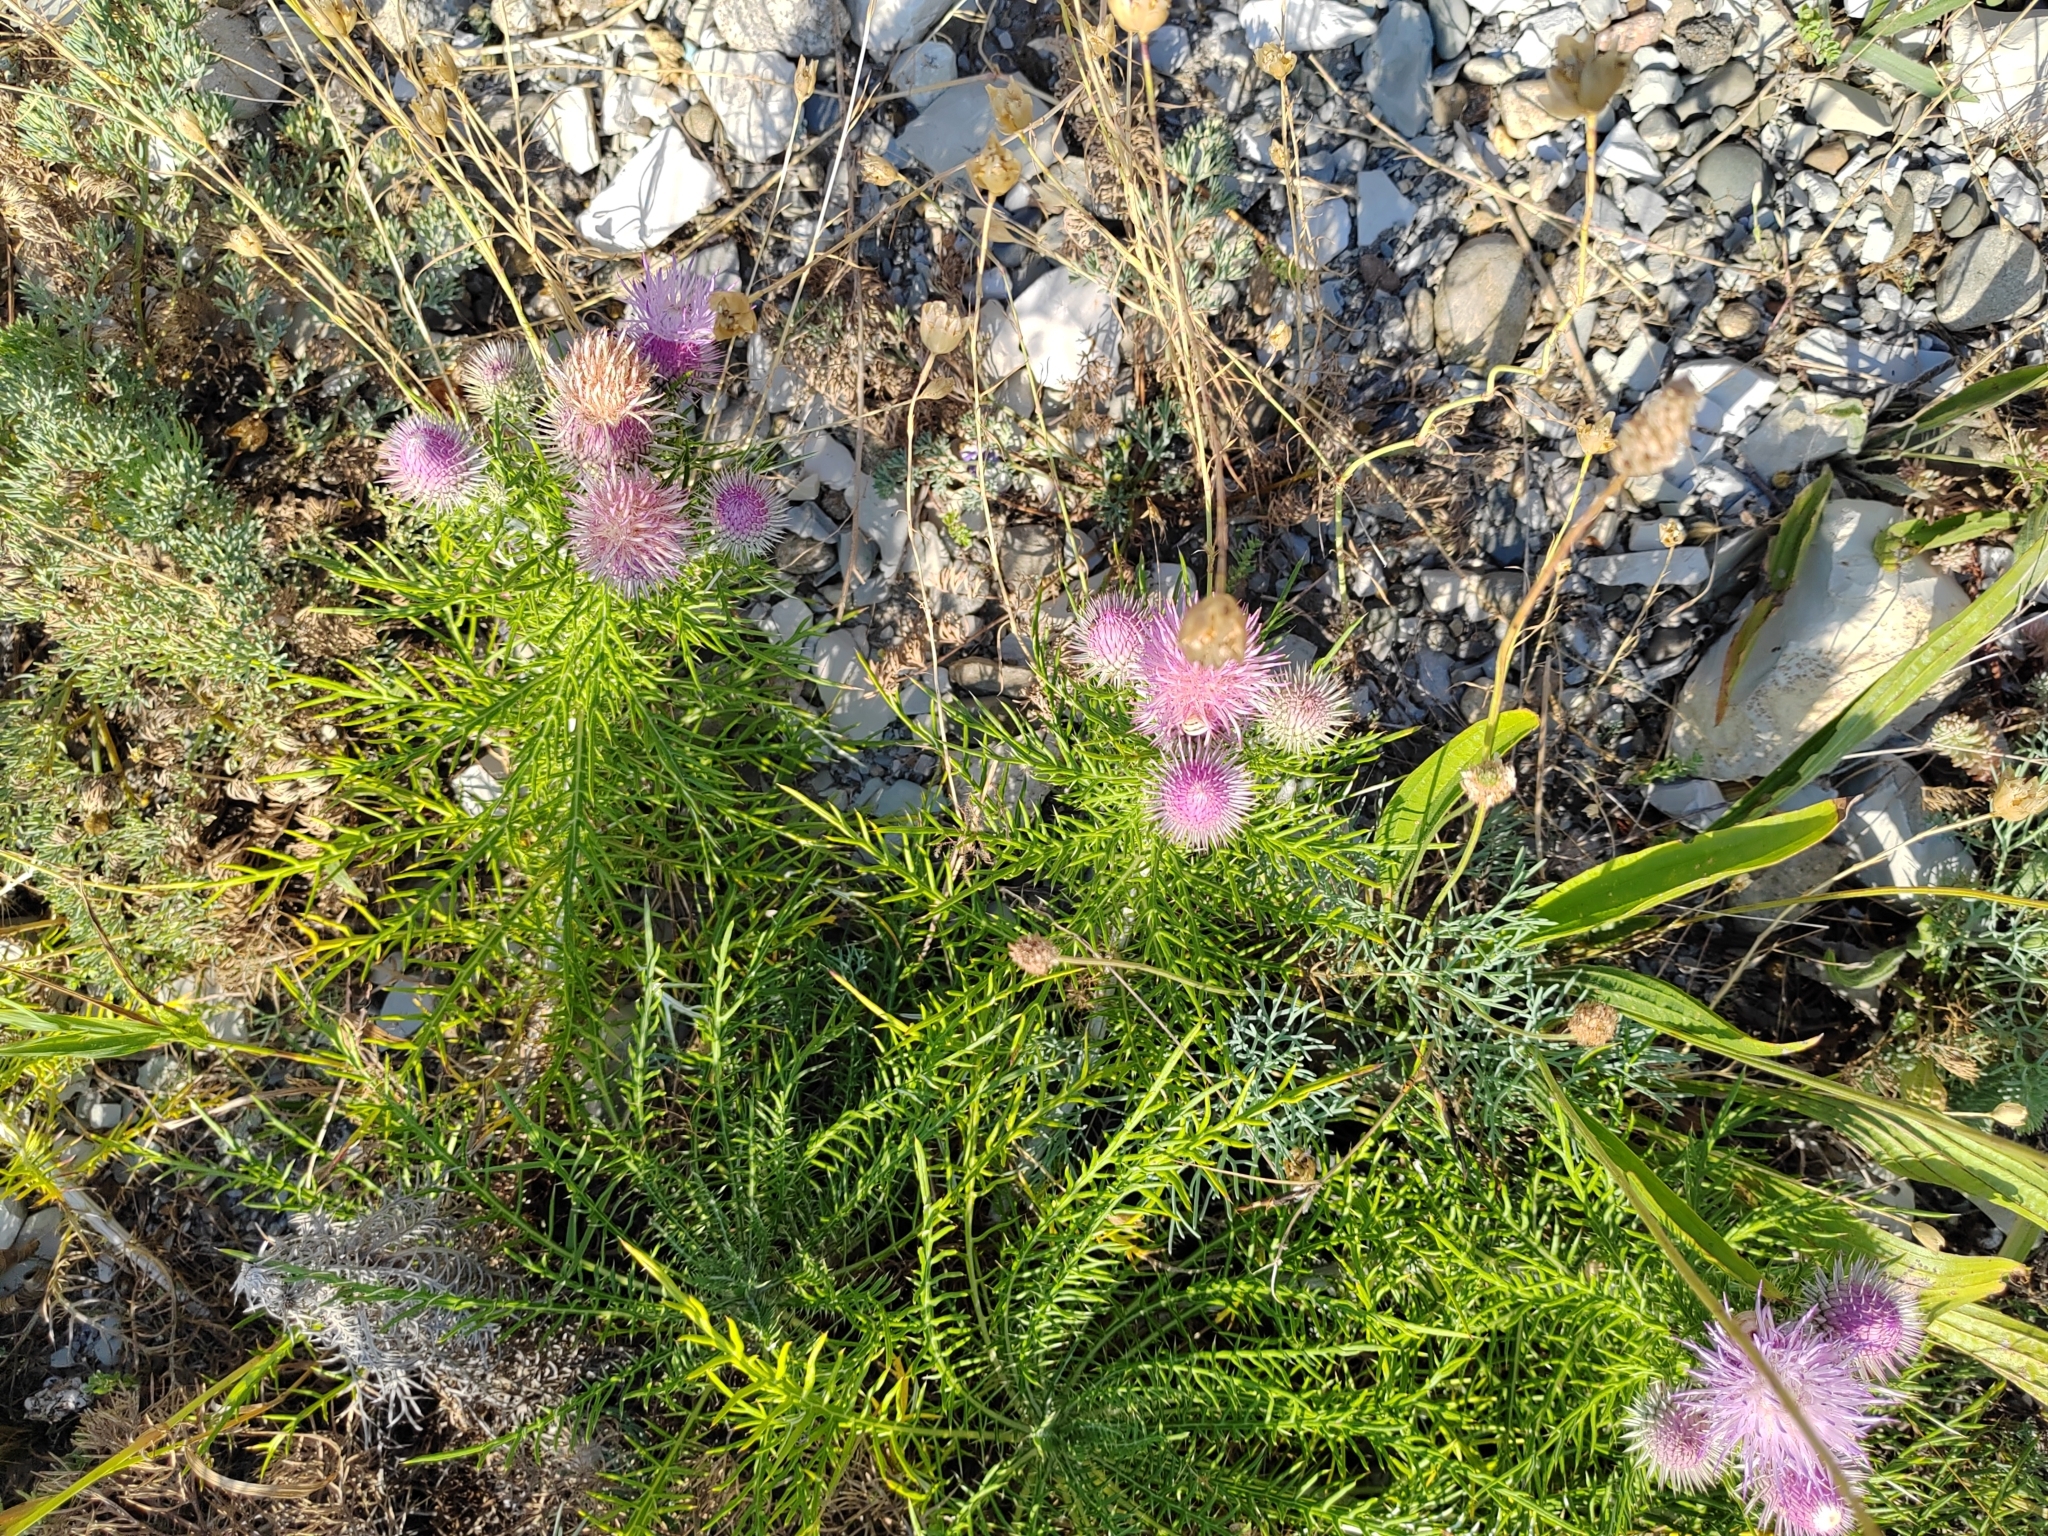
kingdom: Plantae
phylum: Tracheophyta
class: Magnoliopsida
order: Asterales
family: Asteraceae
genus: Ptilostemon
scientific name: Ptilostemon echinocephalus
